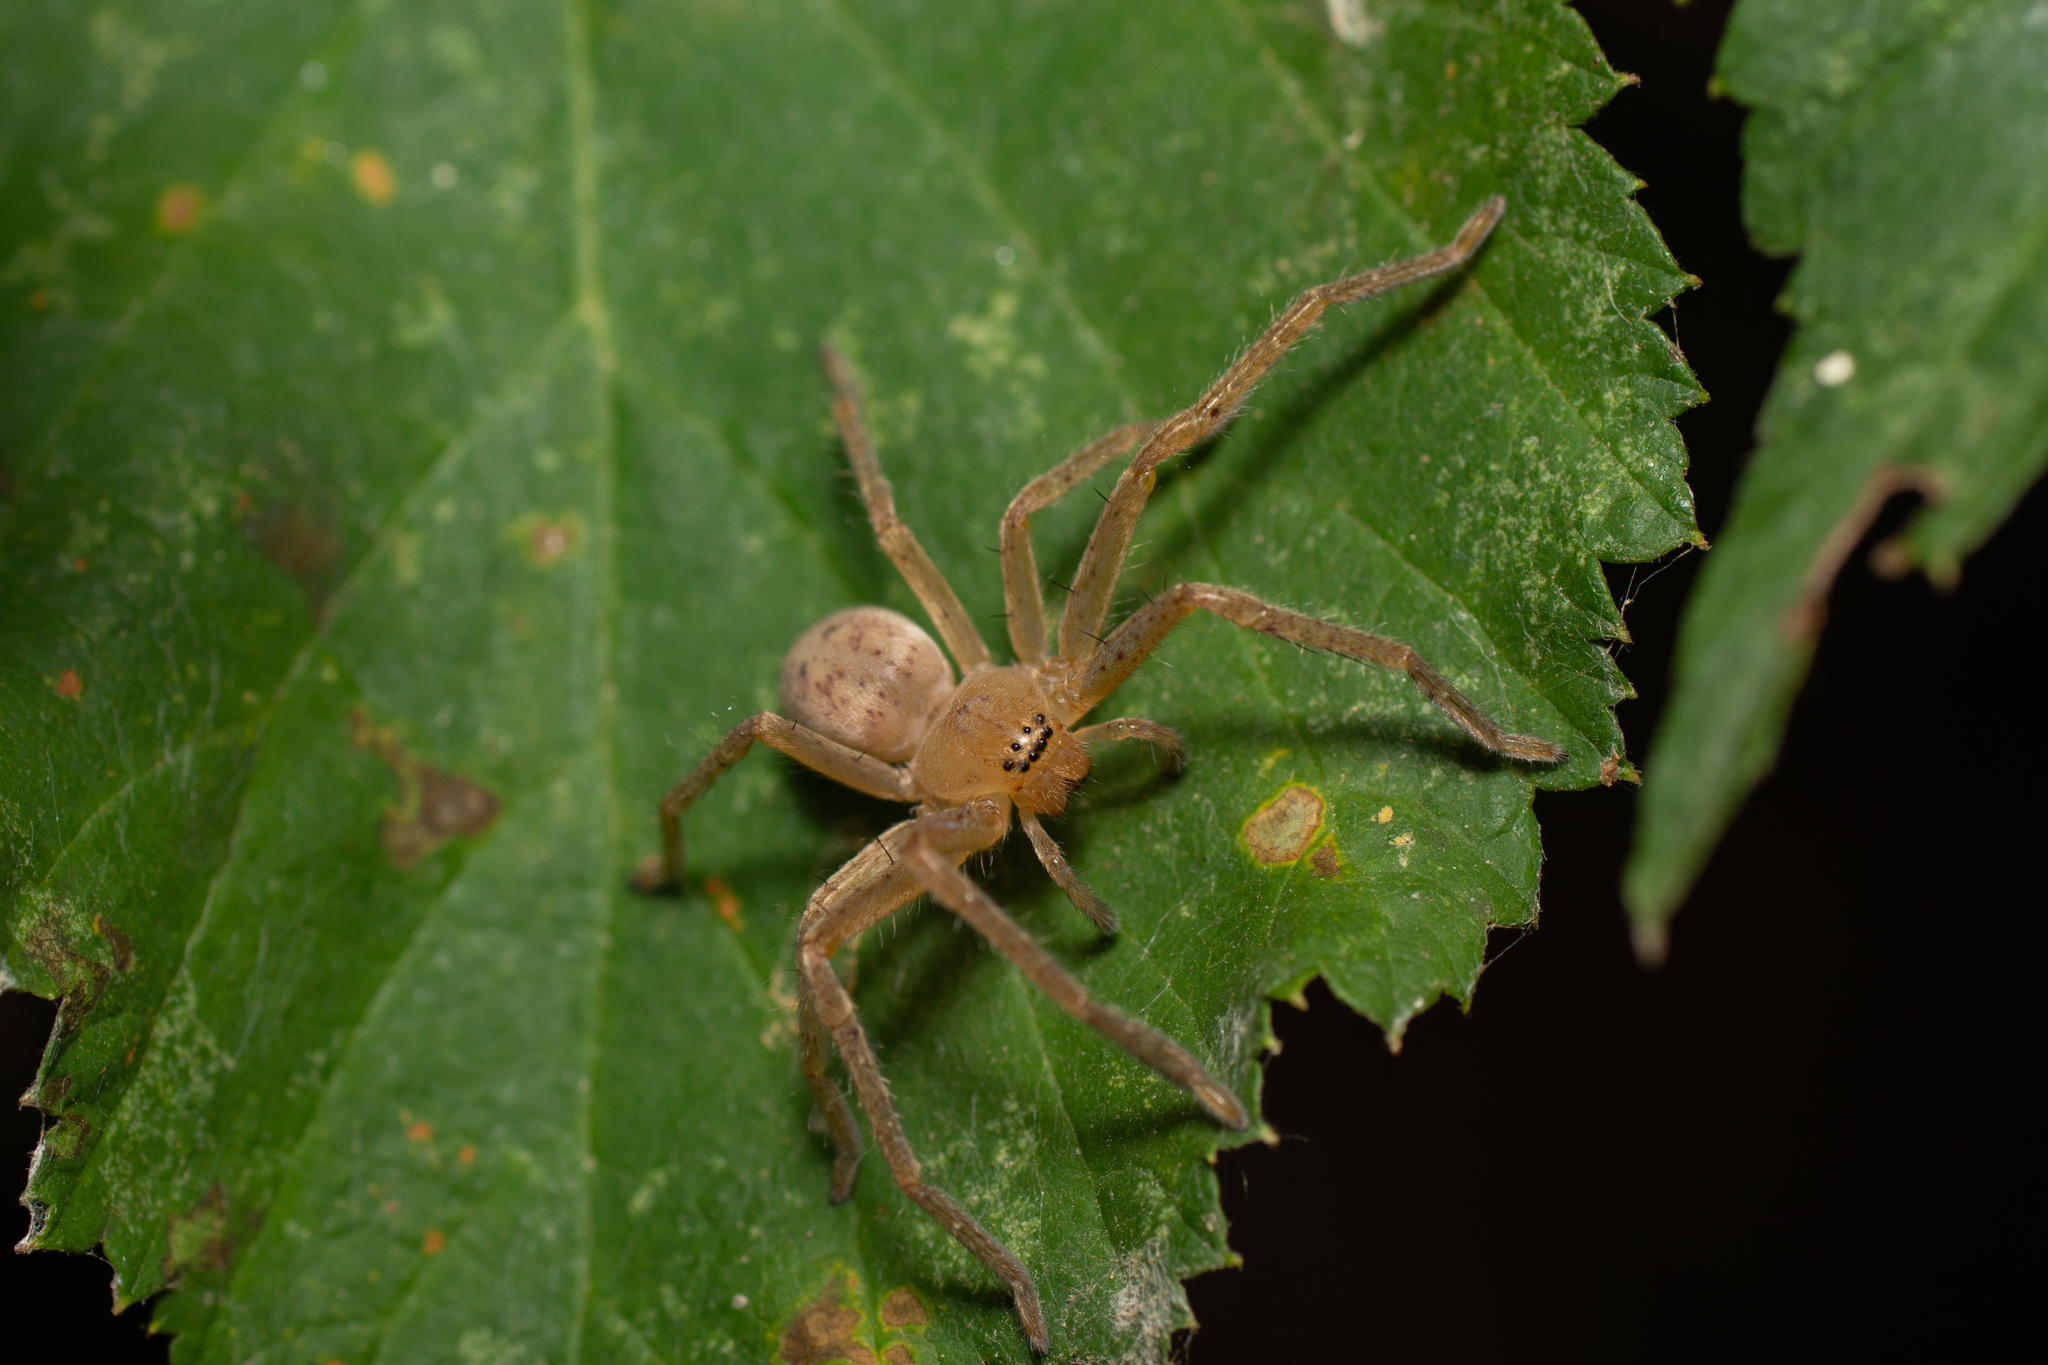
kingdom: Animalia
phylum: Arthropoda
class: Arachnida
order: Araneae
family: Sparassidae
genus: Olios
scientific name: Olios argelasius
